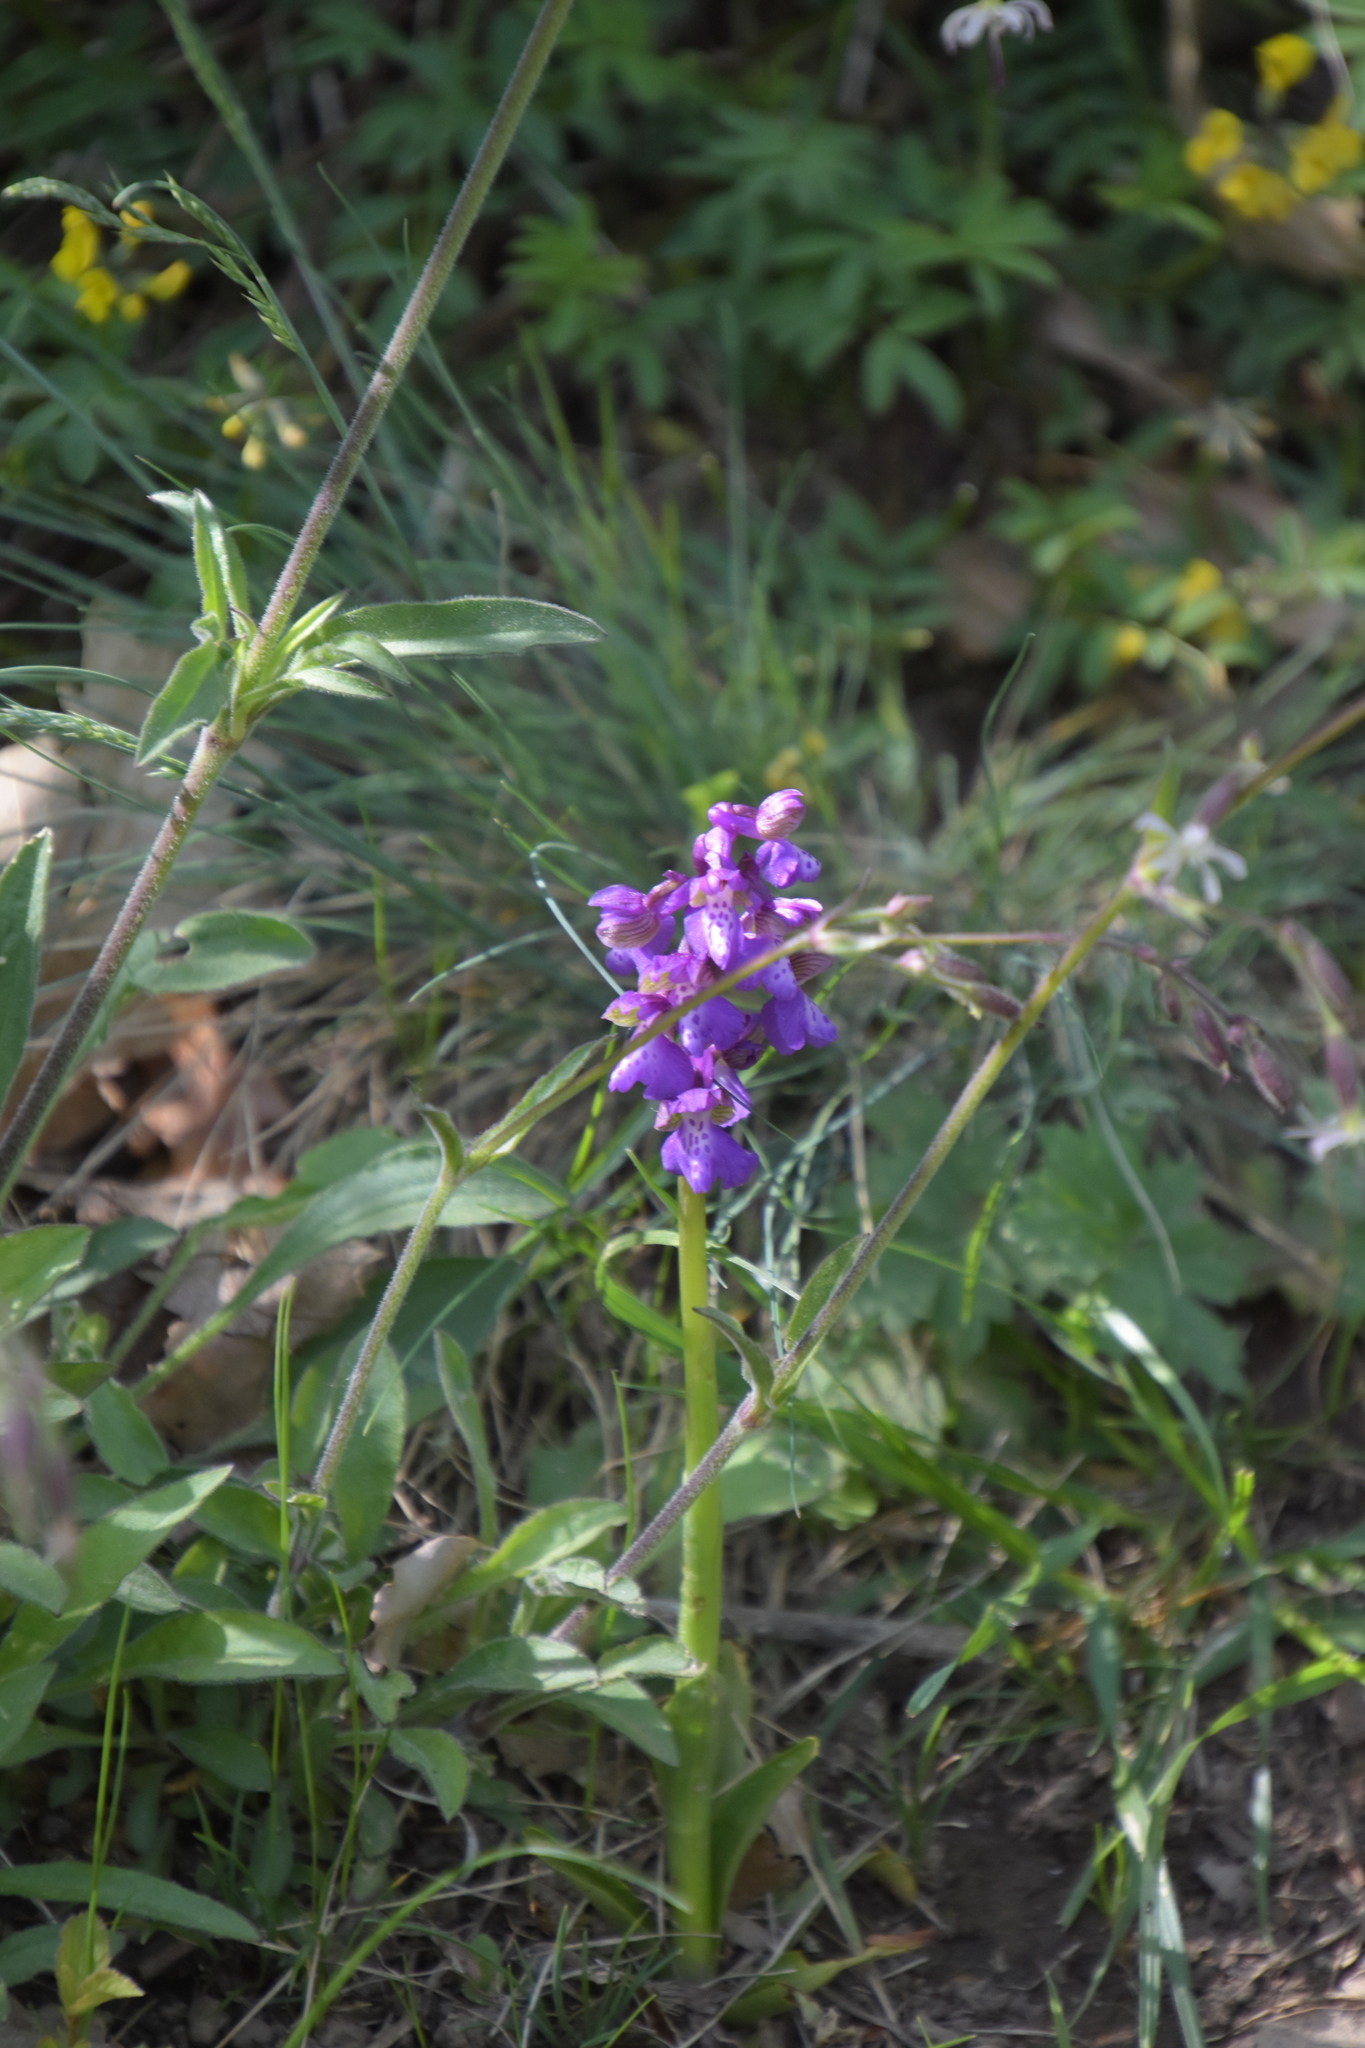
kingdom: Plantae
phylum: Tracheophyta
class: Liliopsida
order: Asparagales
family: Orchidaceae
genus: Anacamptis
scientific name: Anacamptis morio
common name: Green-winged orchid
